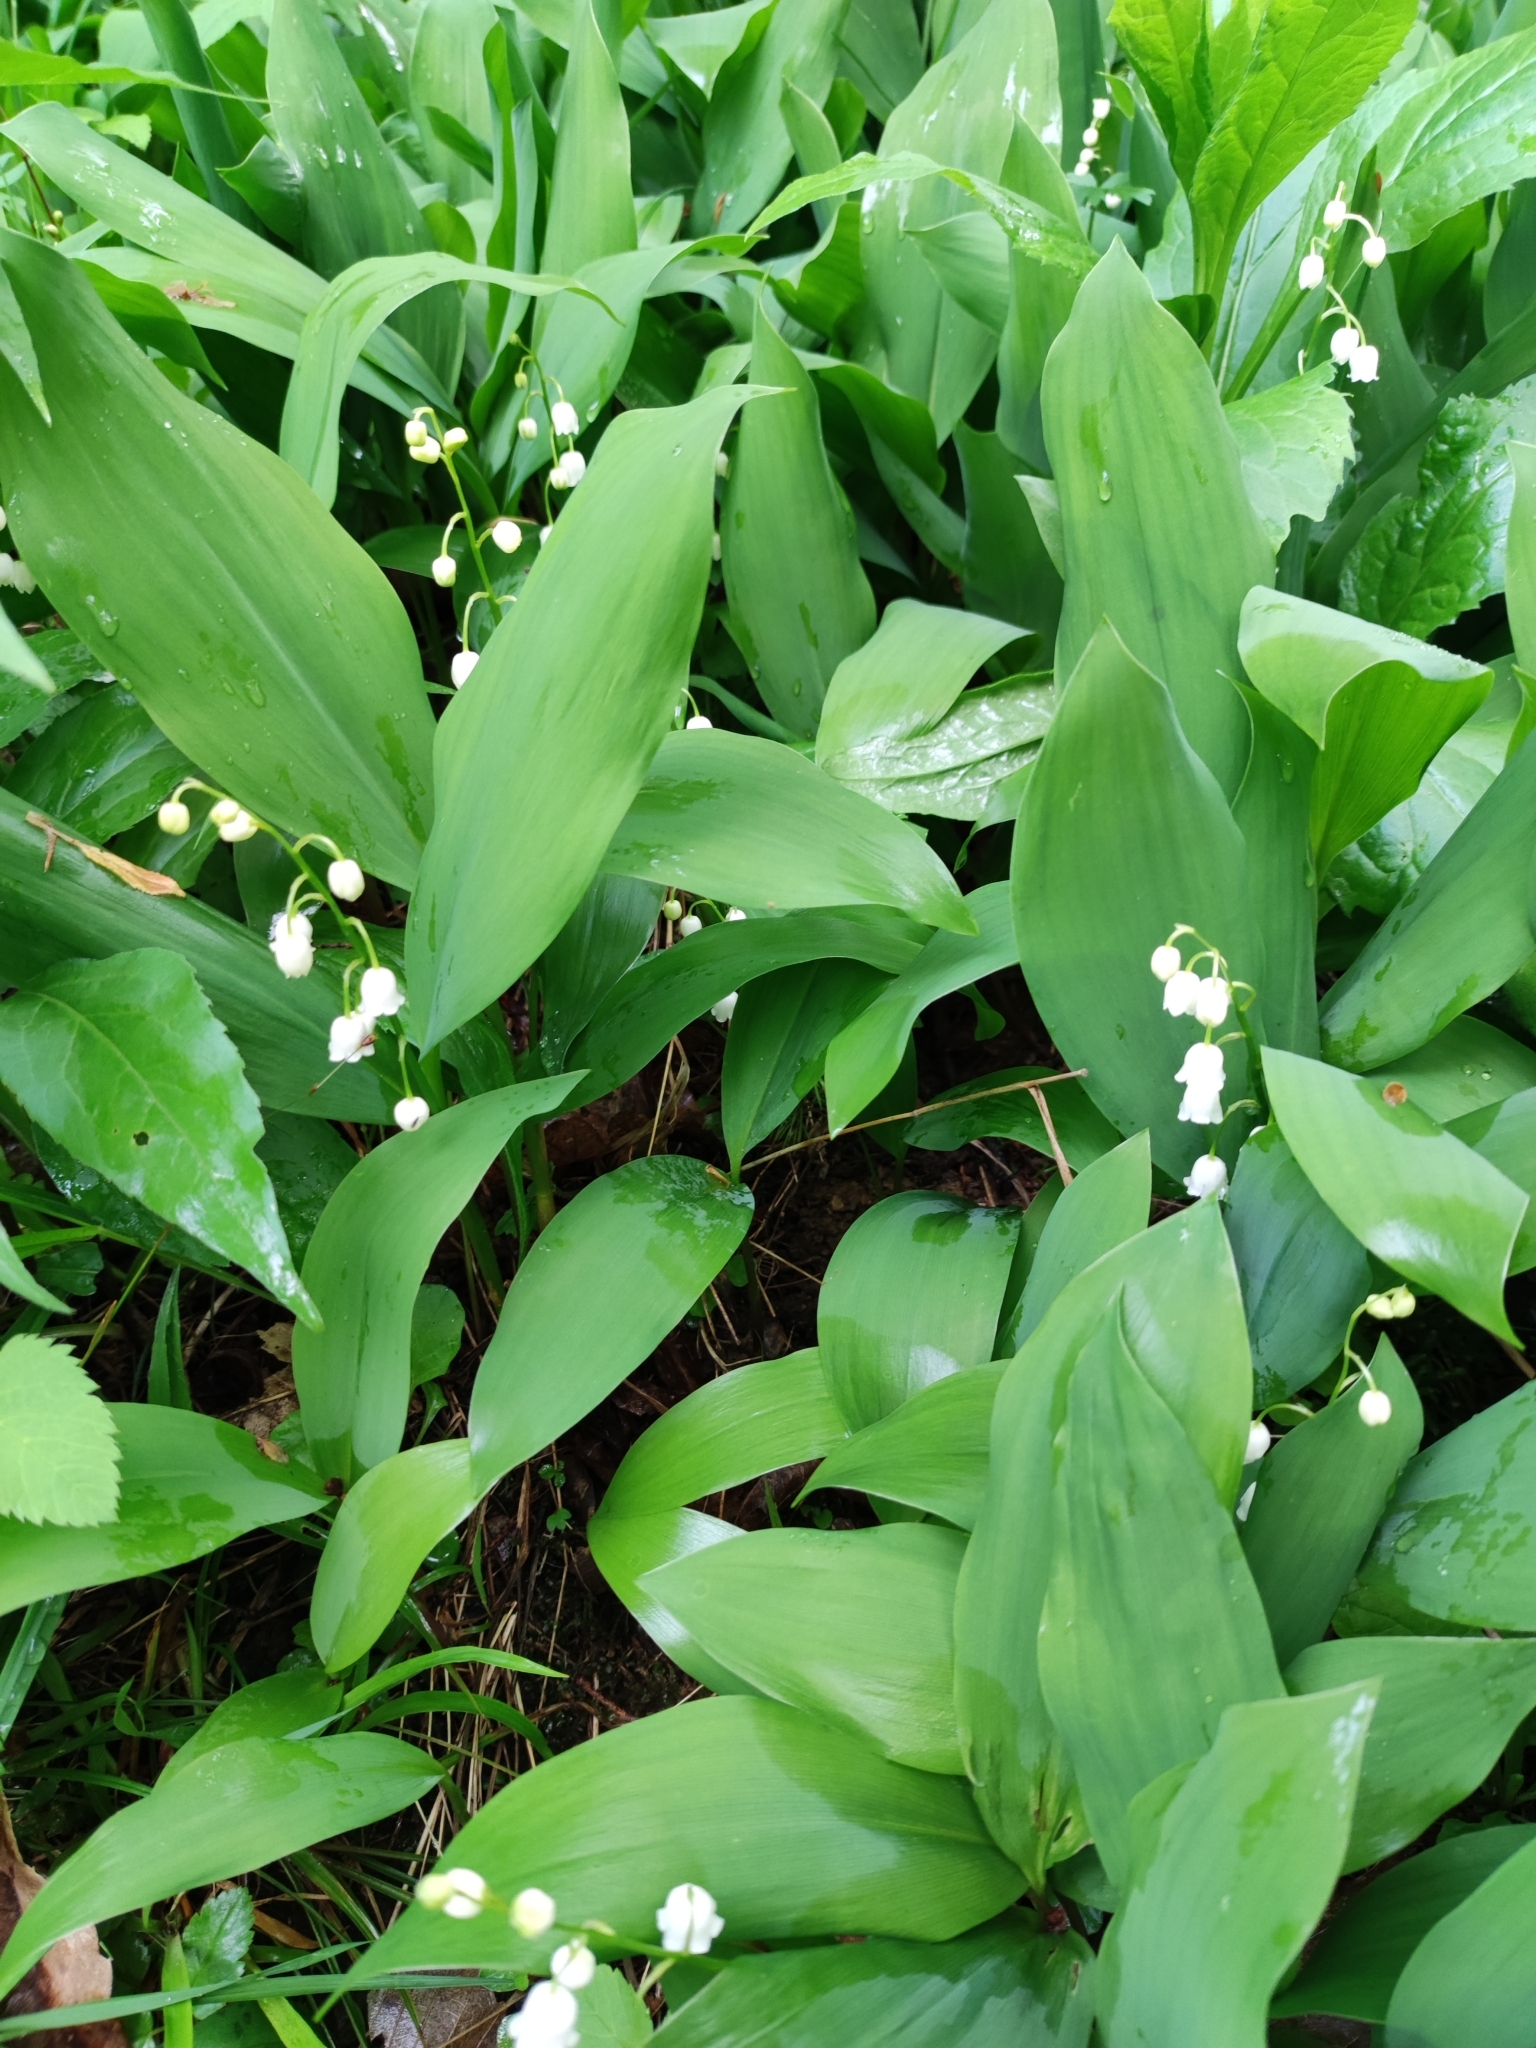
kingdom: Plantae
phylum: Tracheophyta
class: Liliopsida
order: Asparagales
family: Asparagaceae
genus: Convallaria
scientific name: Convallaria majalis
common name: Lily-of-the-valley
